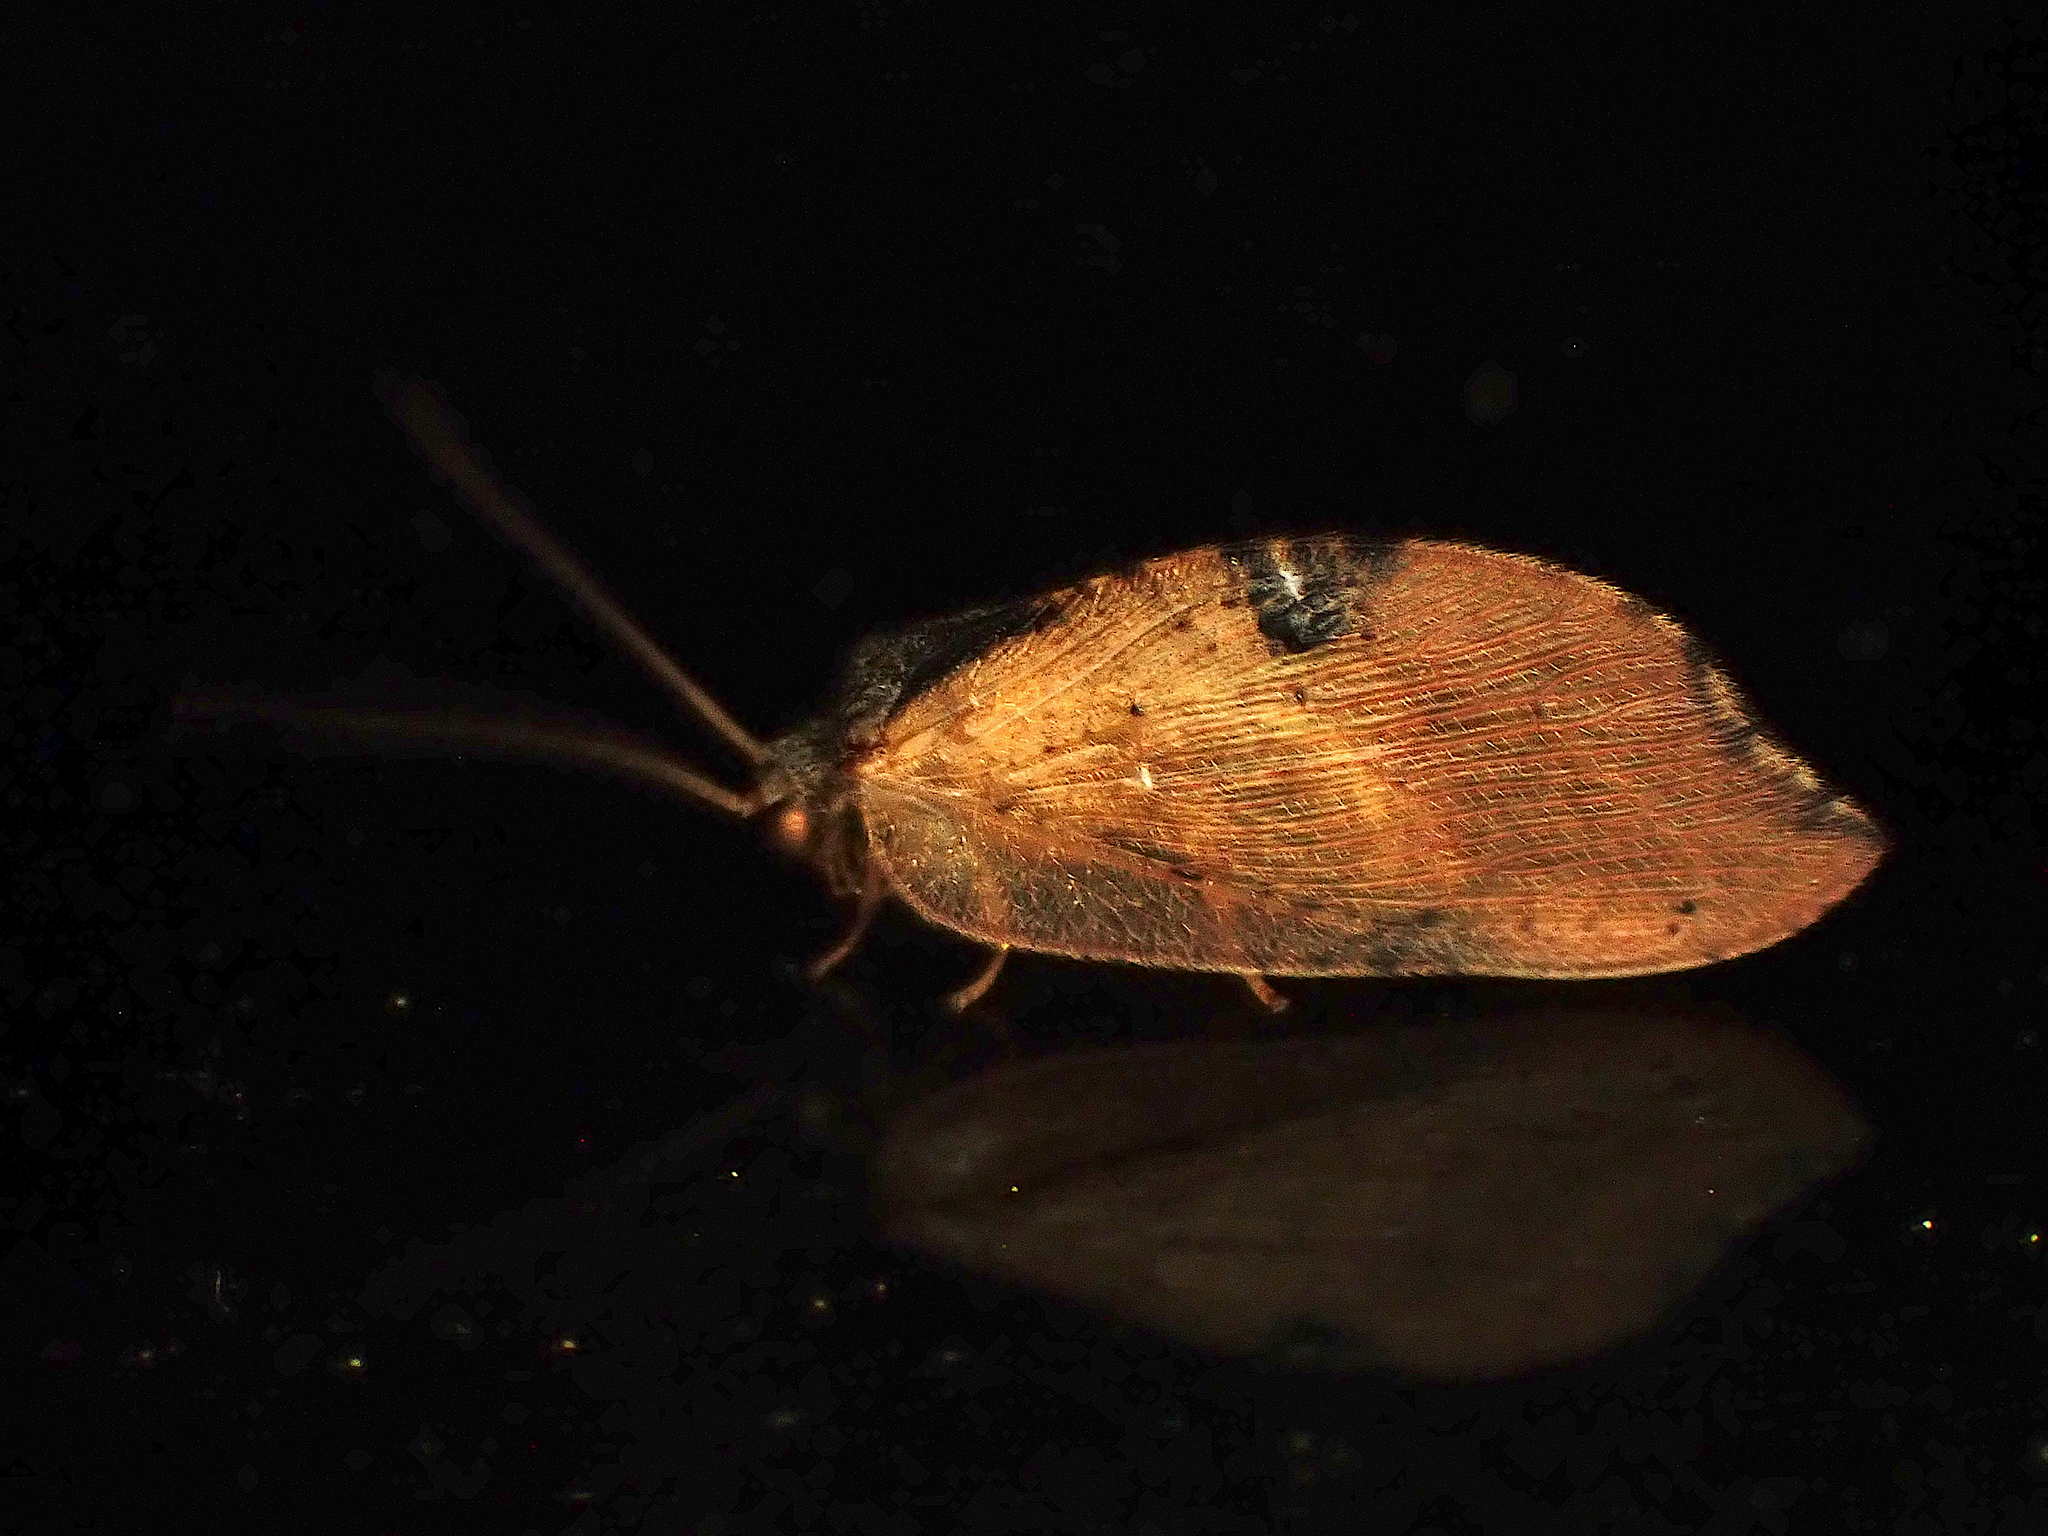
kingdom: Animalia
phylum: Arthropoda
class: Insecta
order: Neuroptera
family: Hemerobiidae
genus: Drepanacra
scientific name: Drepanacra binocula
